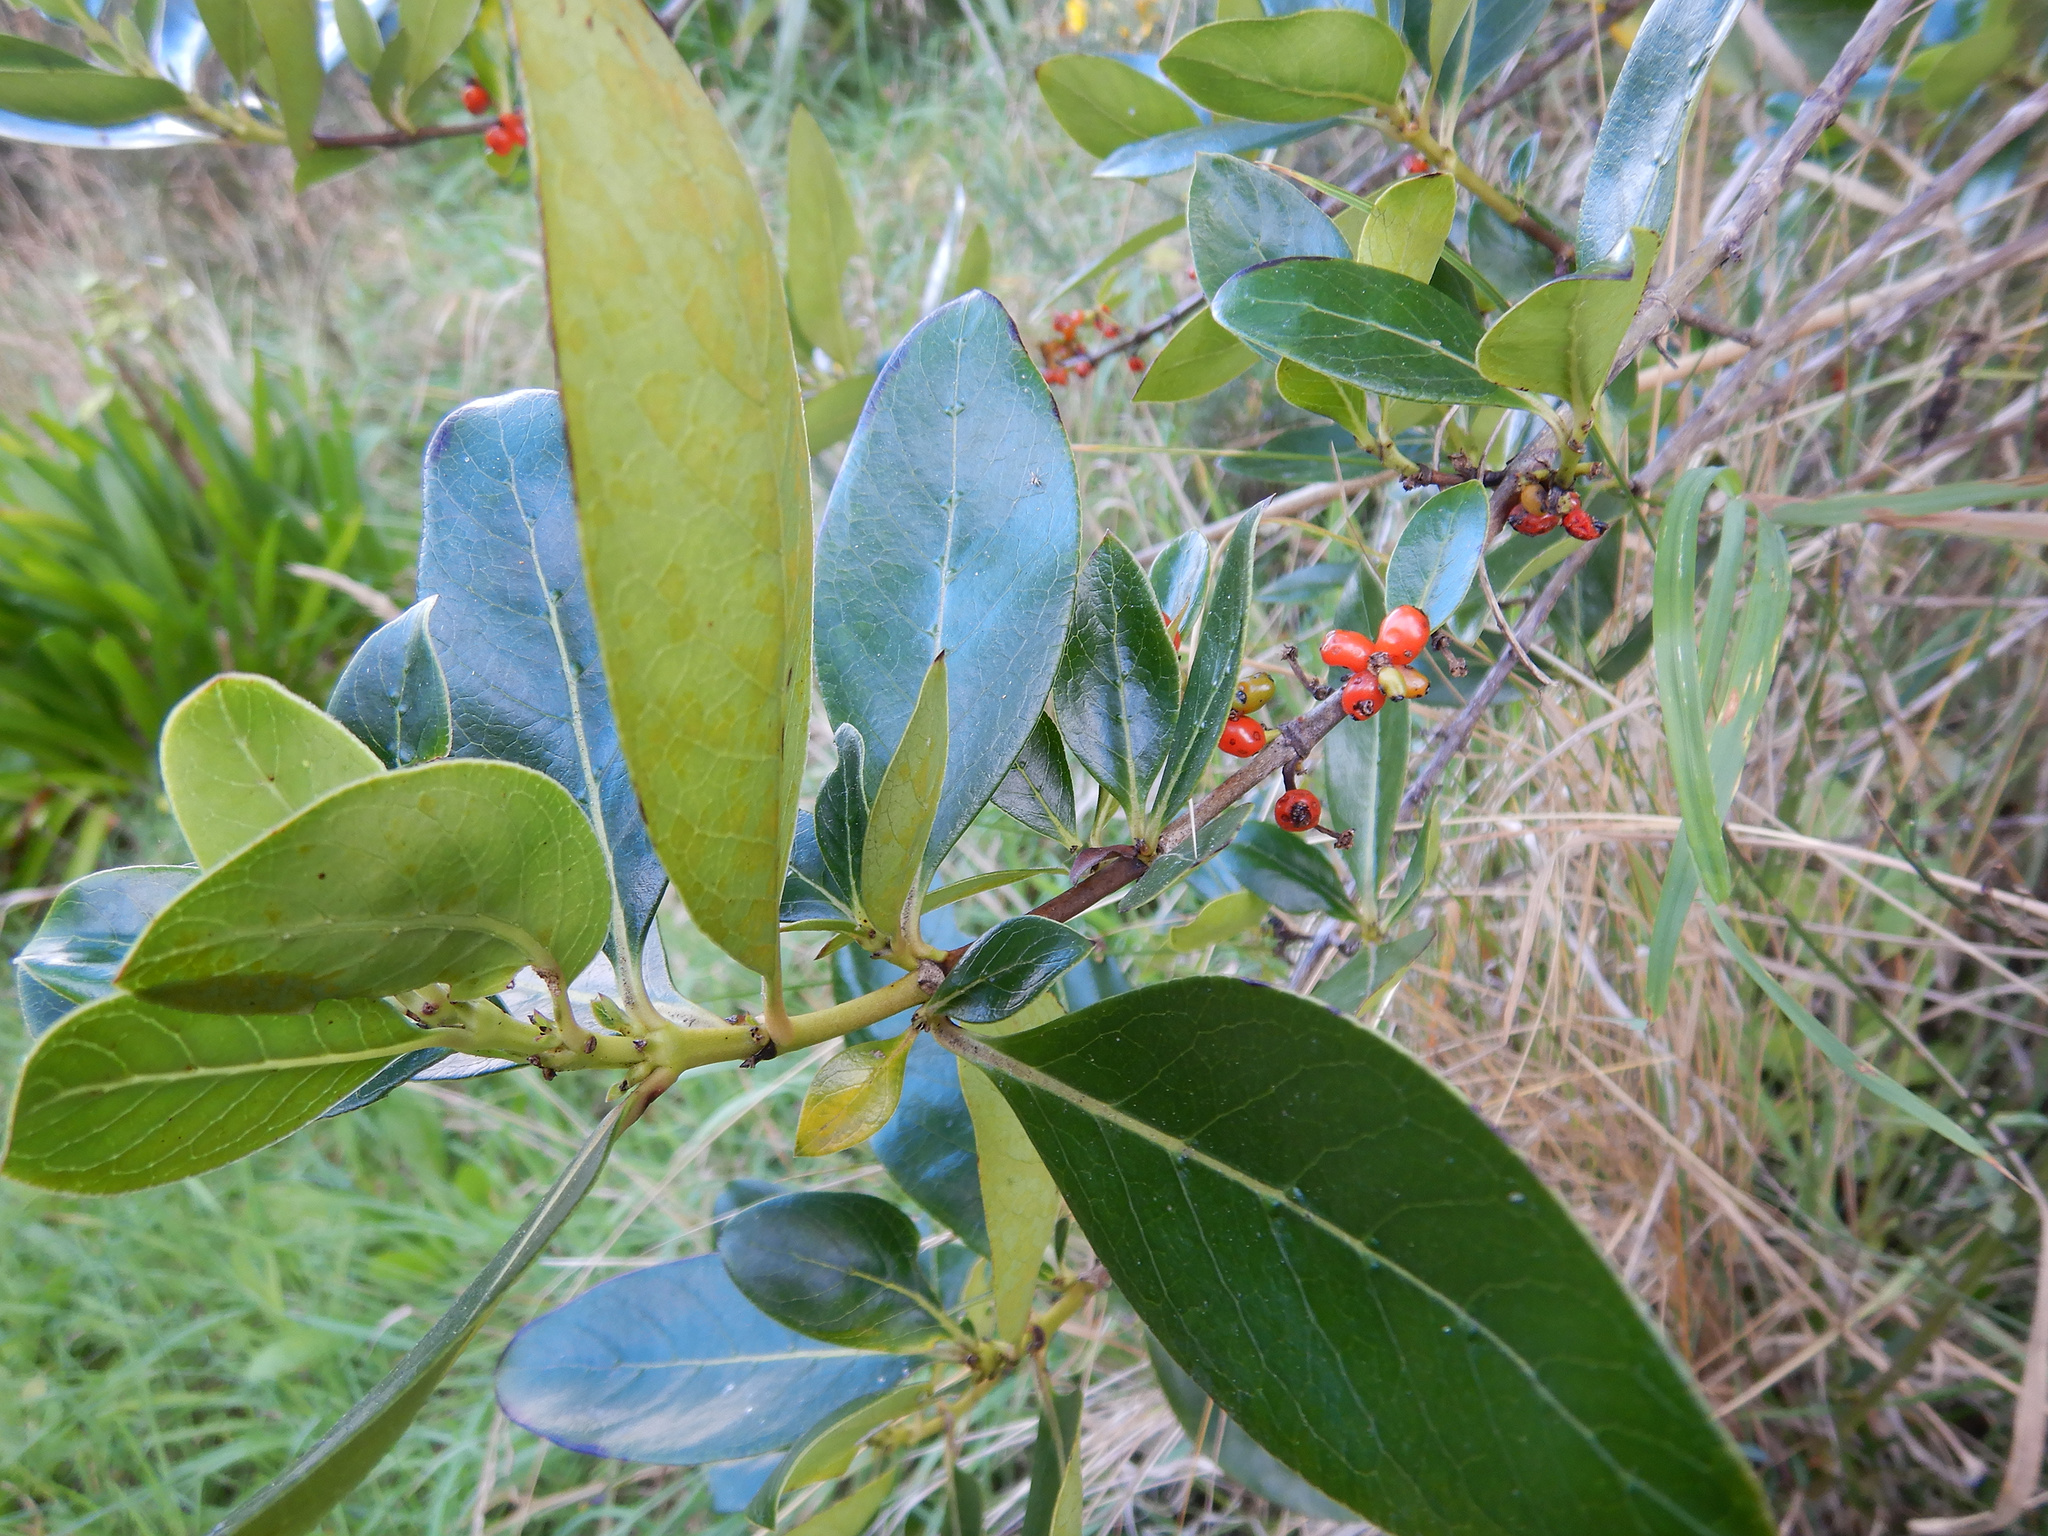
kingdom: Plantae
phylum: Tracheophyta
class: Magnoliopsida
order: Gentianales
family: Rubiaceae
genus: Coprosma
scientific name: Coprosma robusta
